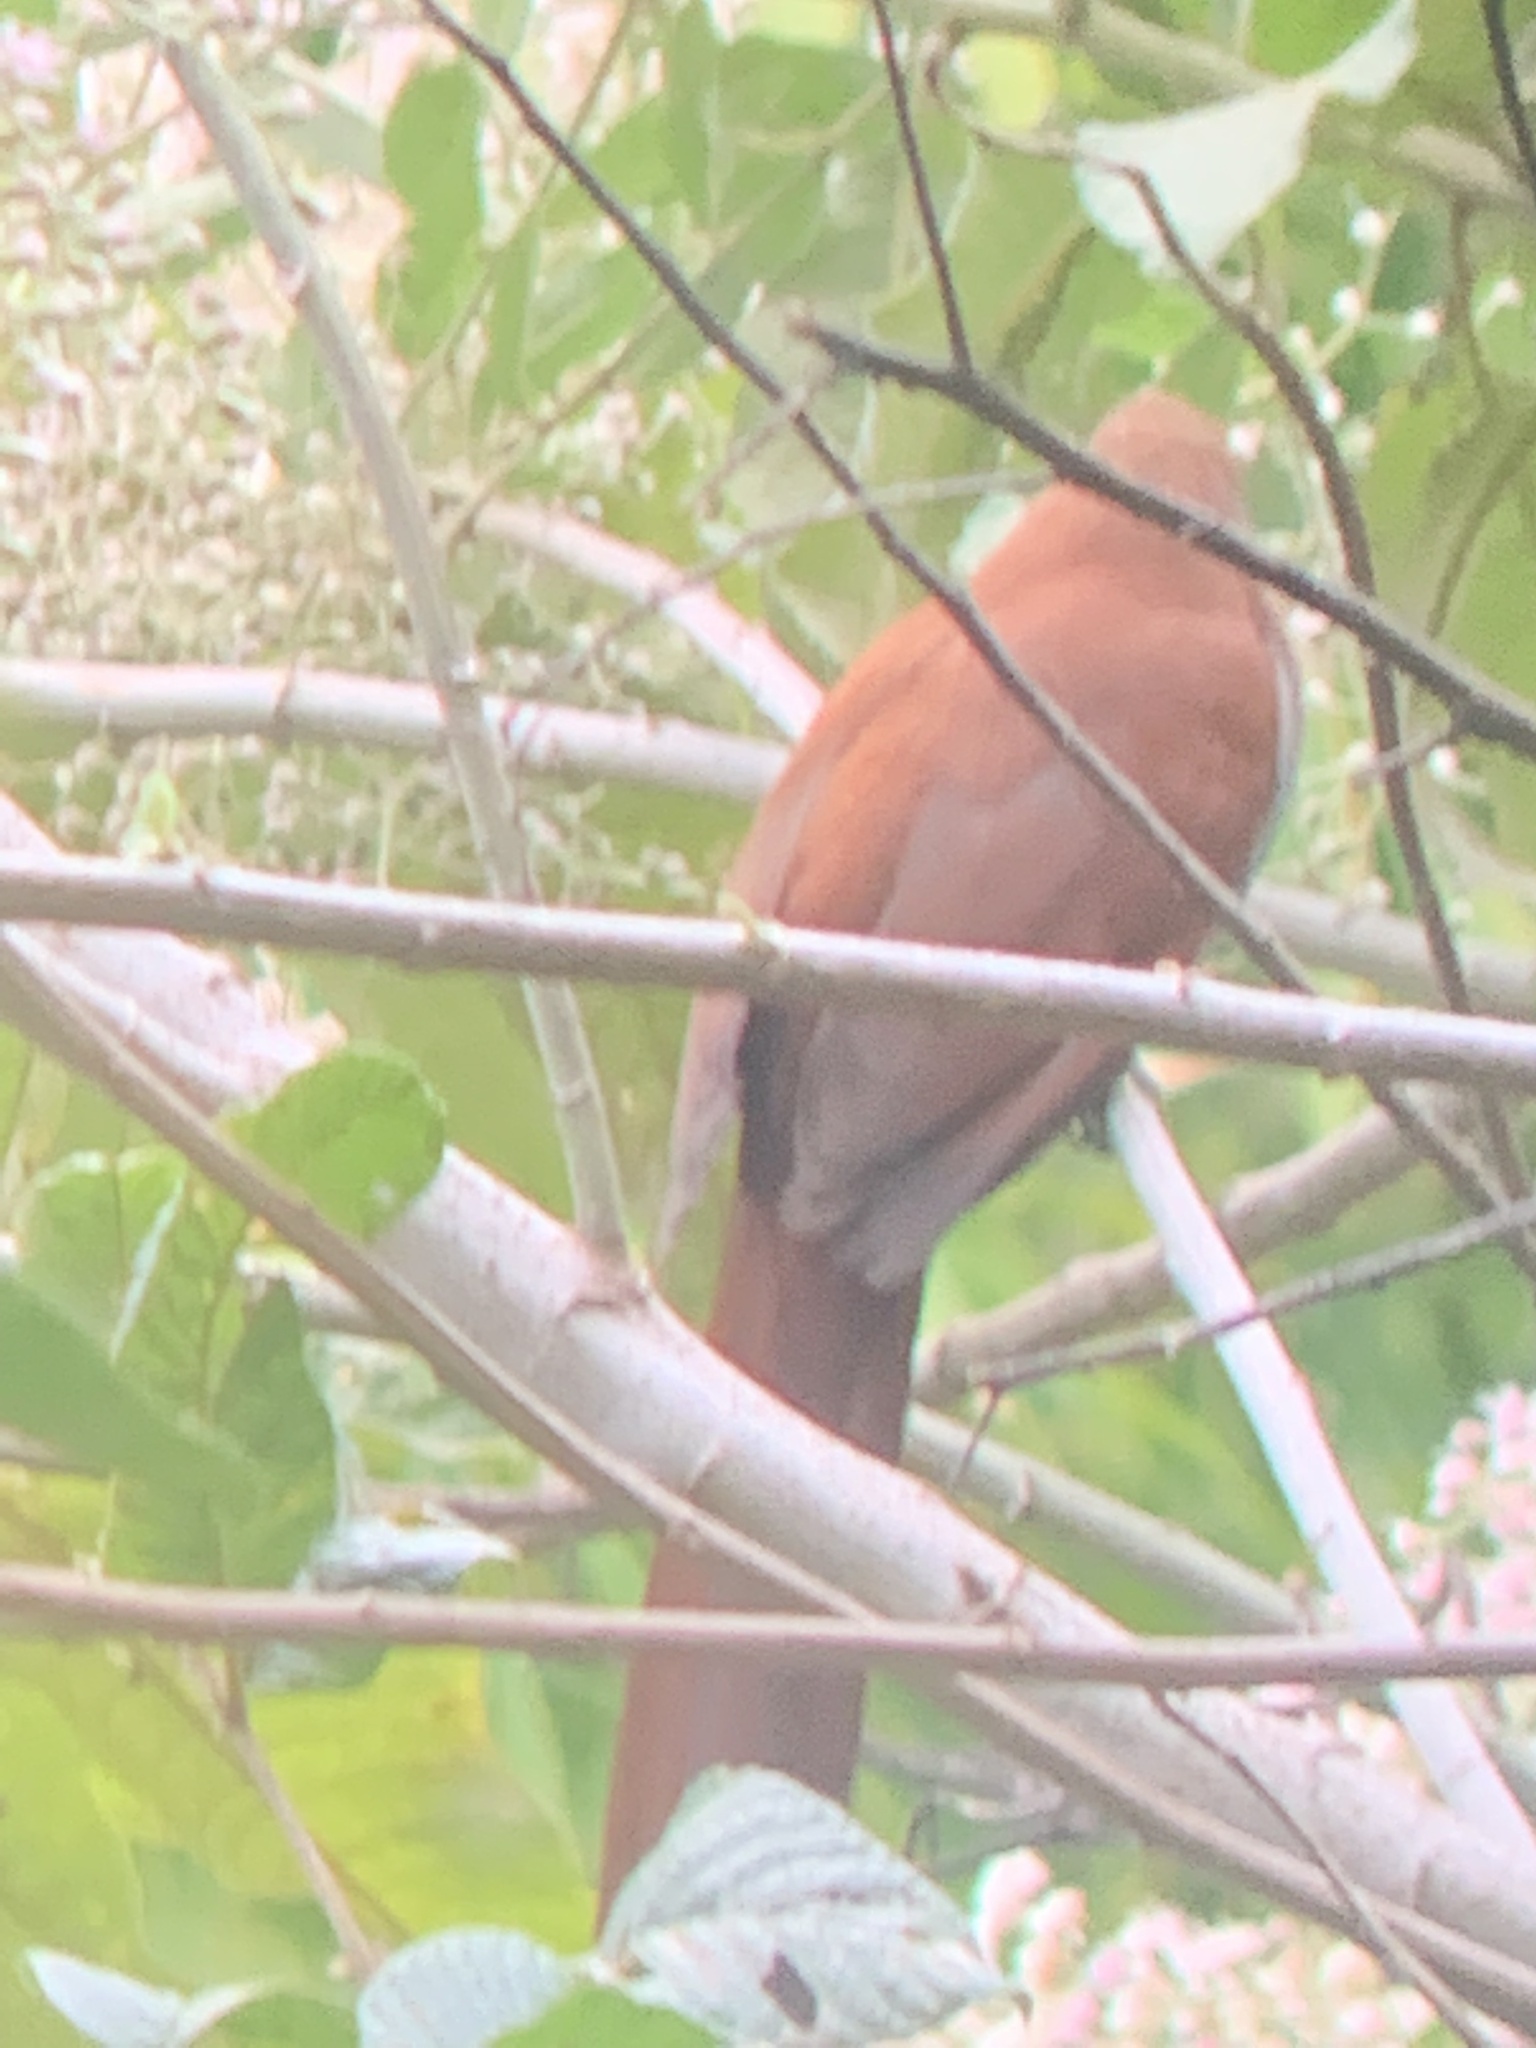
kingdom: Animalia
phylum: Chordata
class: Aves
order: Cuculiformes
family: Cuculidae
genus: Piaya
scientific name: Piaya cayana
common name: Squirrel cuckoo
